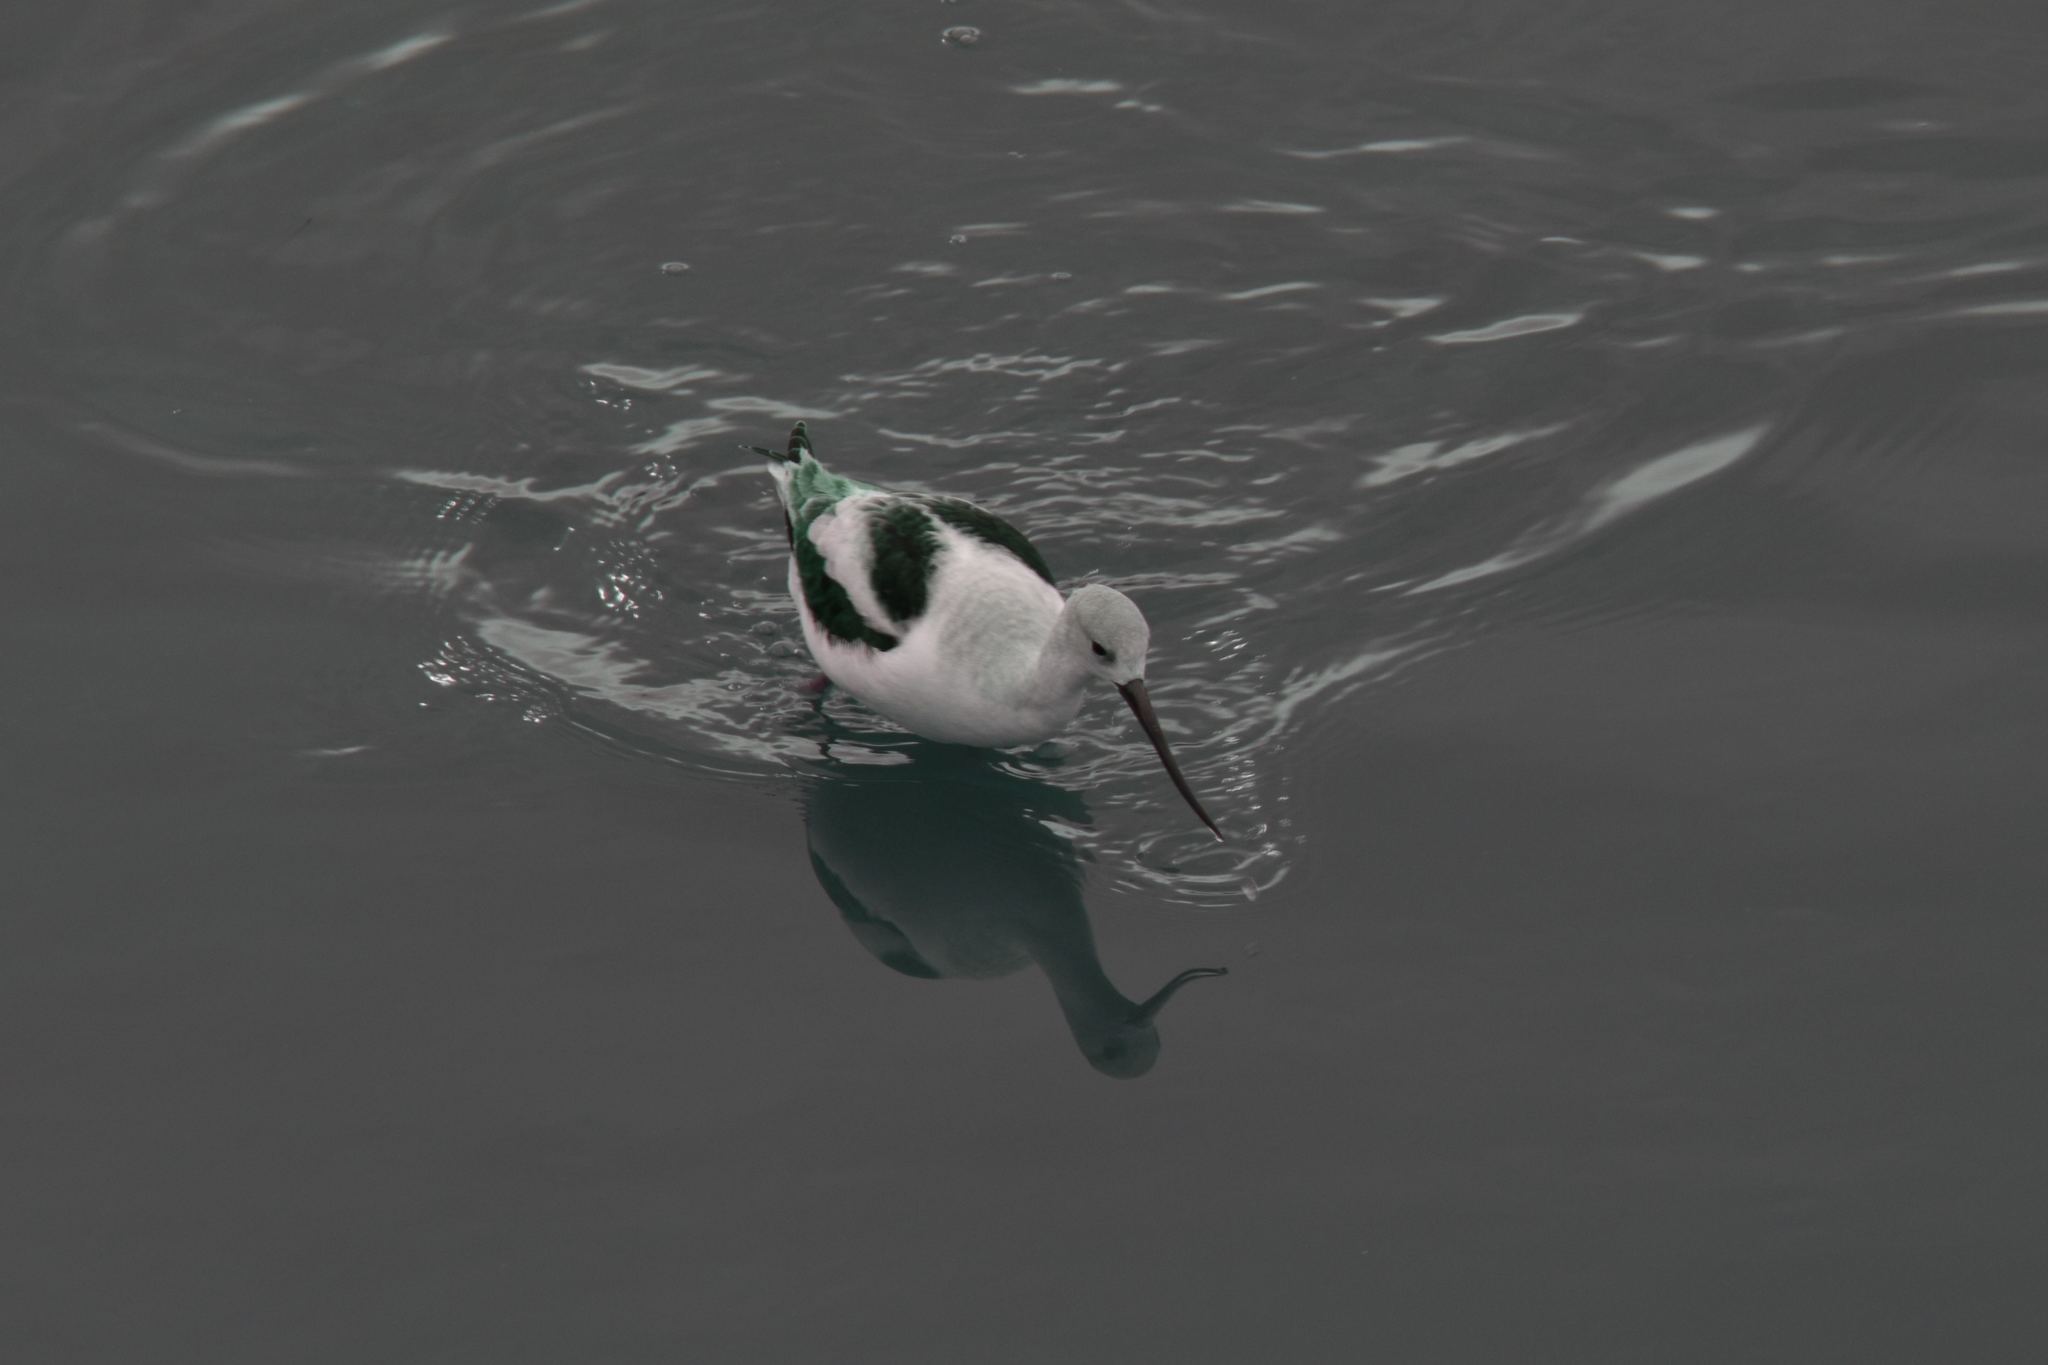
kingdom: Animalia
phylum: Chordata
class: Aves
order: Charadriiformes
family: Recurvirostridae
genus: Recurvirostra
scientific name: Recurvirostra americana
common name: American avocet
